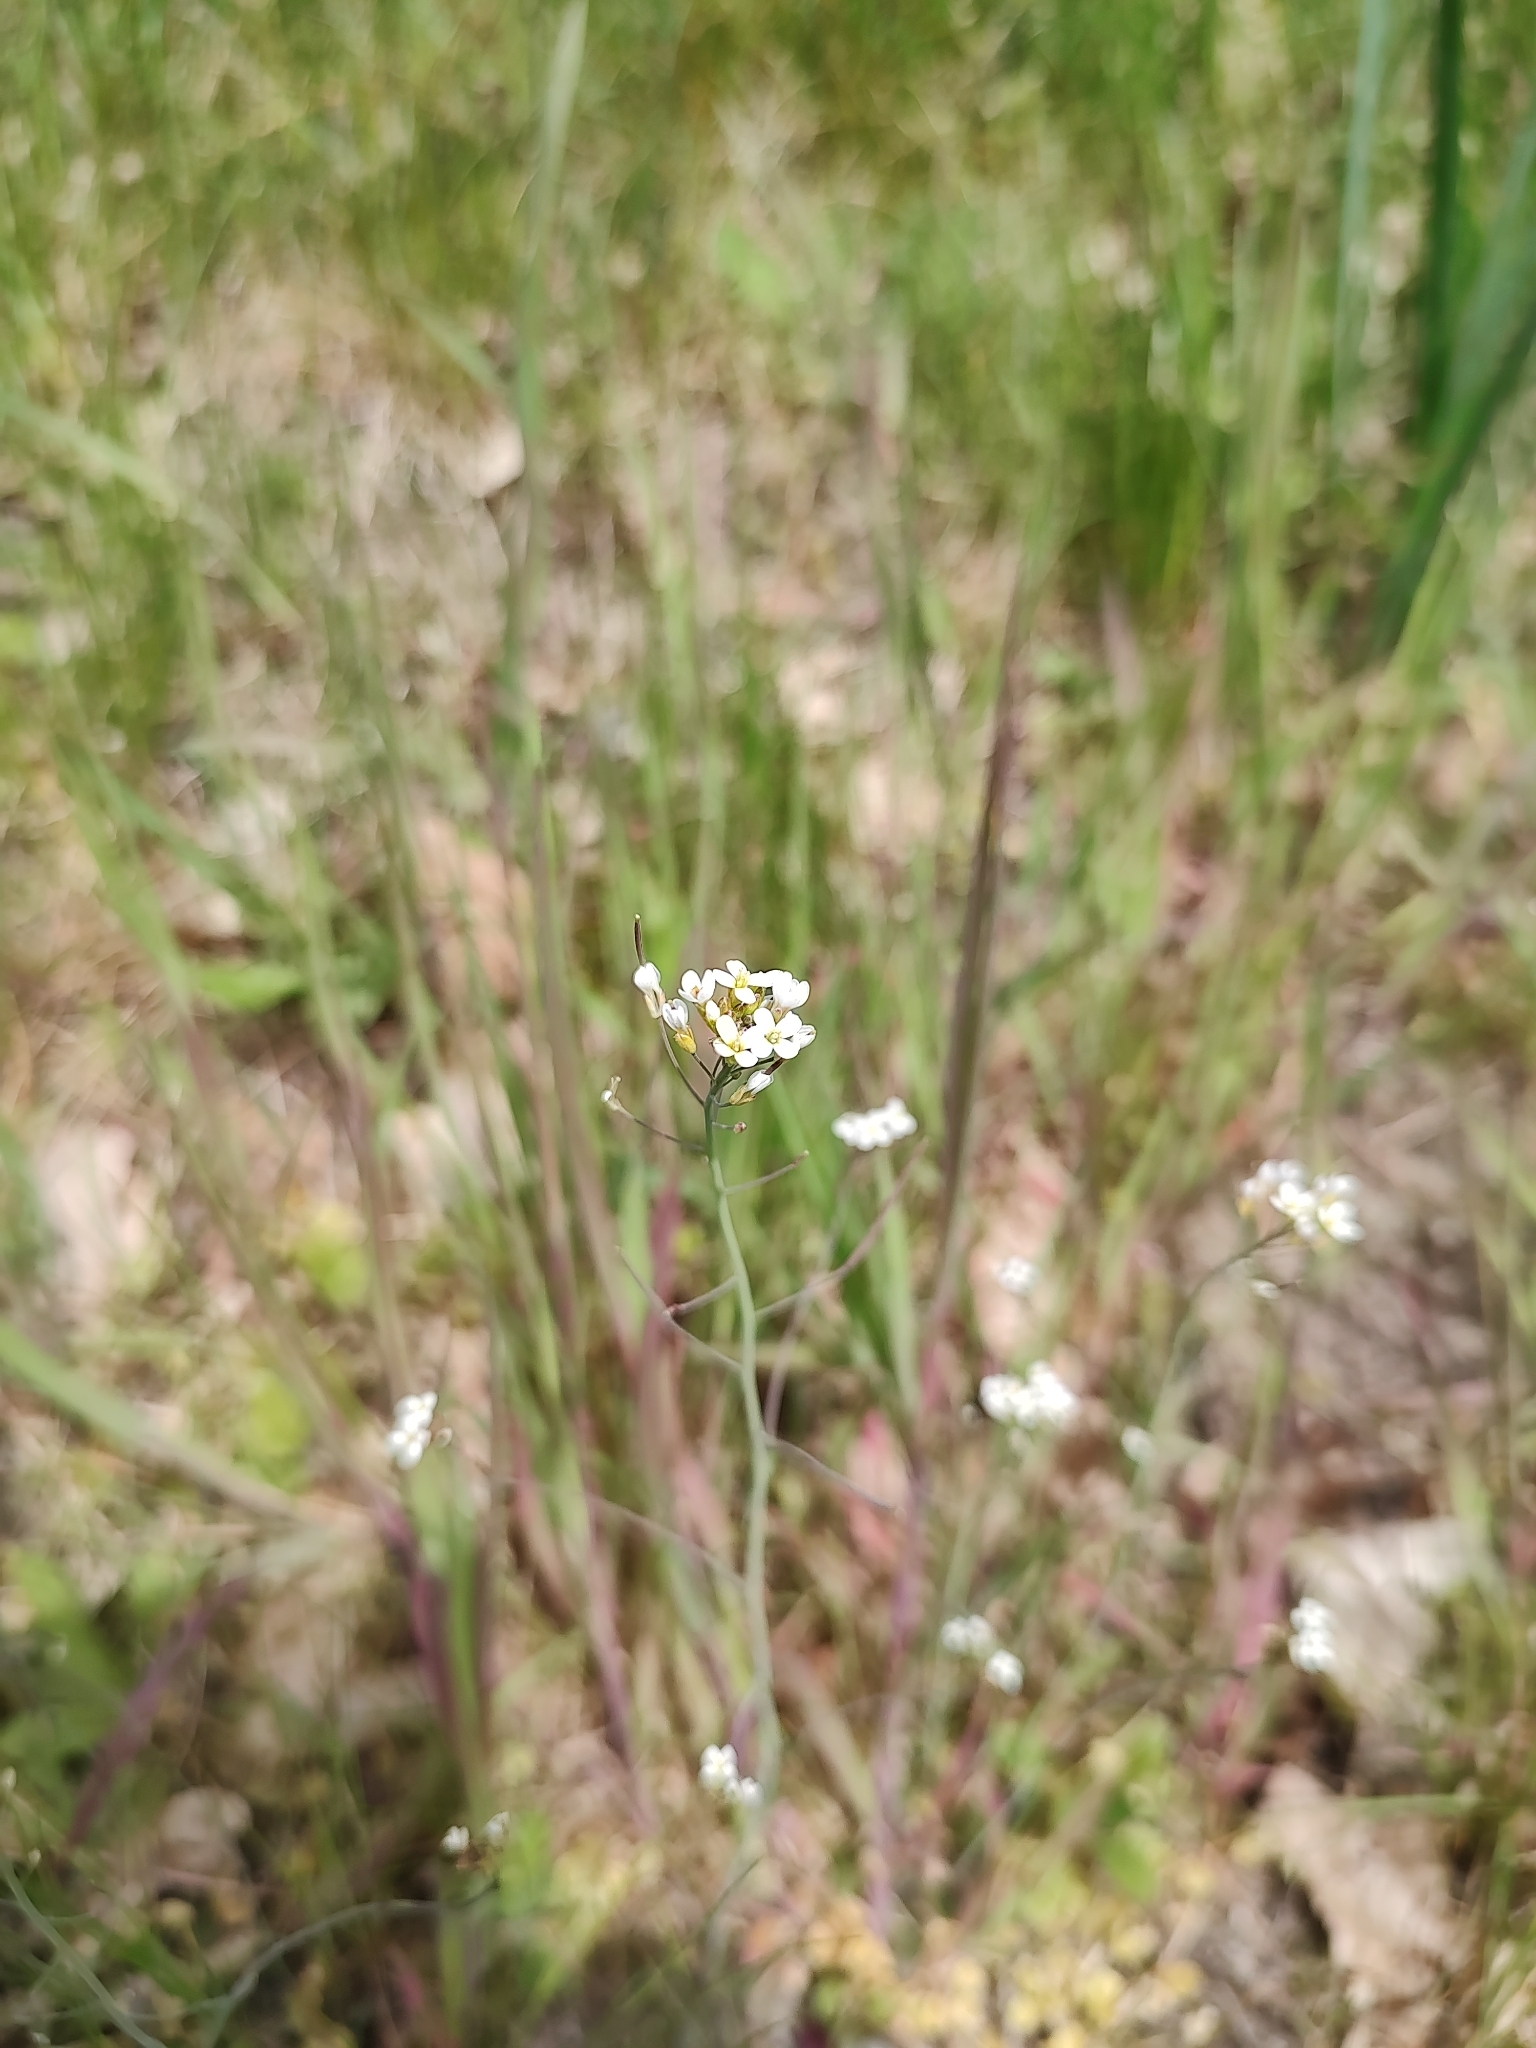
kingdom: Plantae
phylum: Tracheophyta
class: Magnoliopsida
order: Brassicales
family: Brassicaceae
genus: Arabidopsis
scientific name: Arabidopsis thaliana
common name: Thale cress
